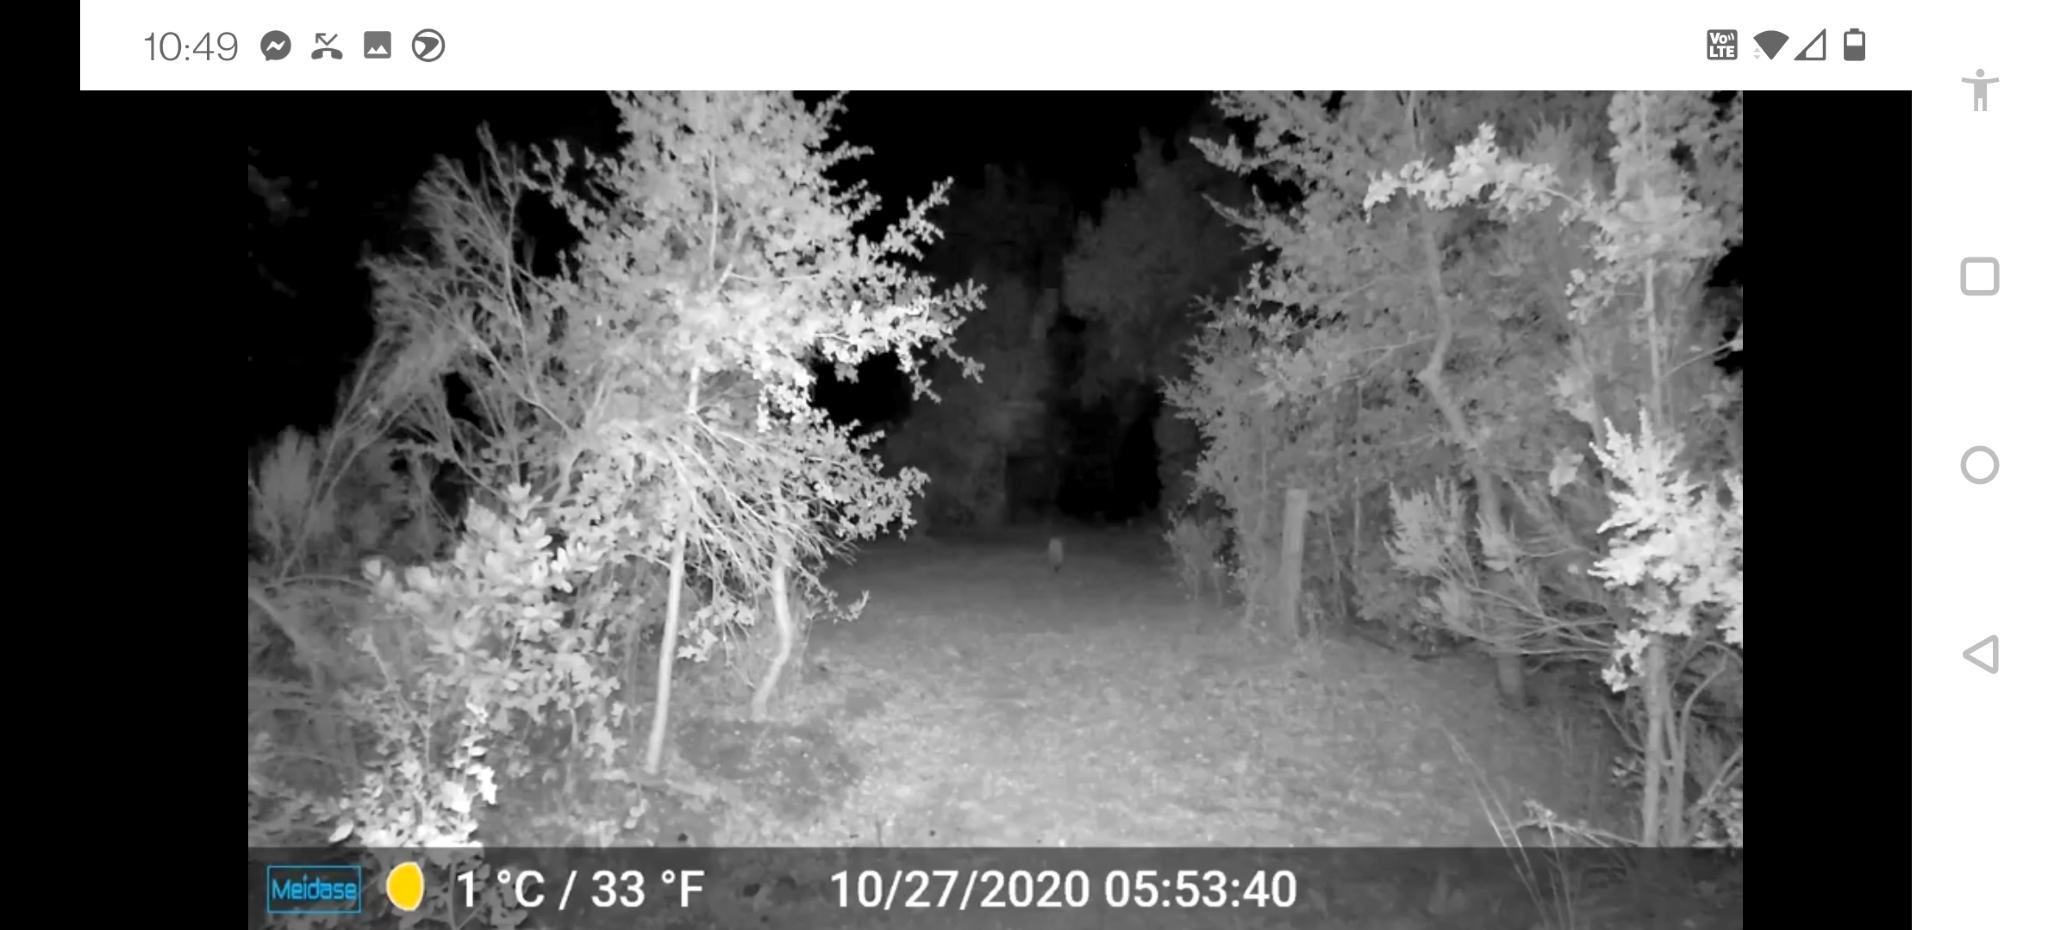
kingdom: Animalia
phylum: Chordata
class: Mammalia
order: Carnivora
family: Felidae
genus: Puma
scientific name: Puma concolor
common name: Puma
